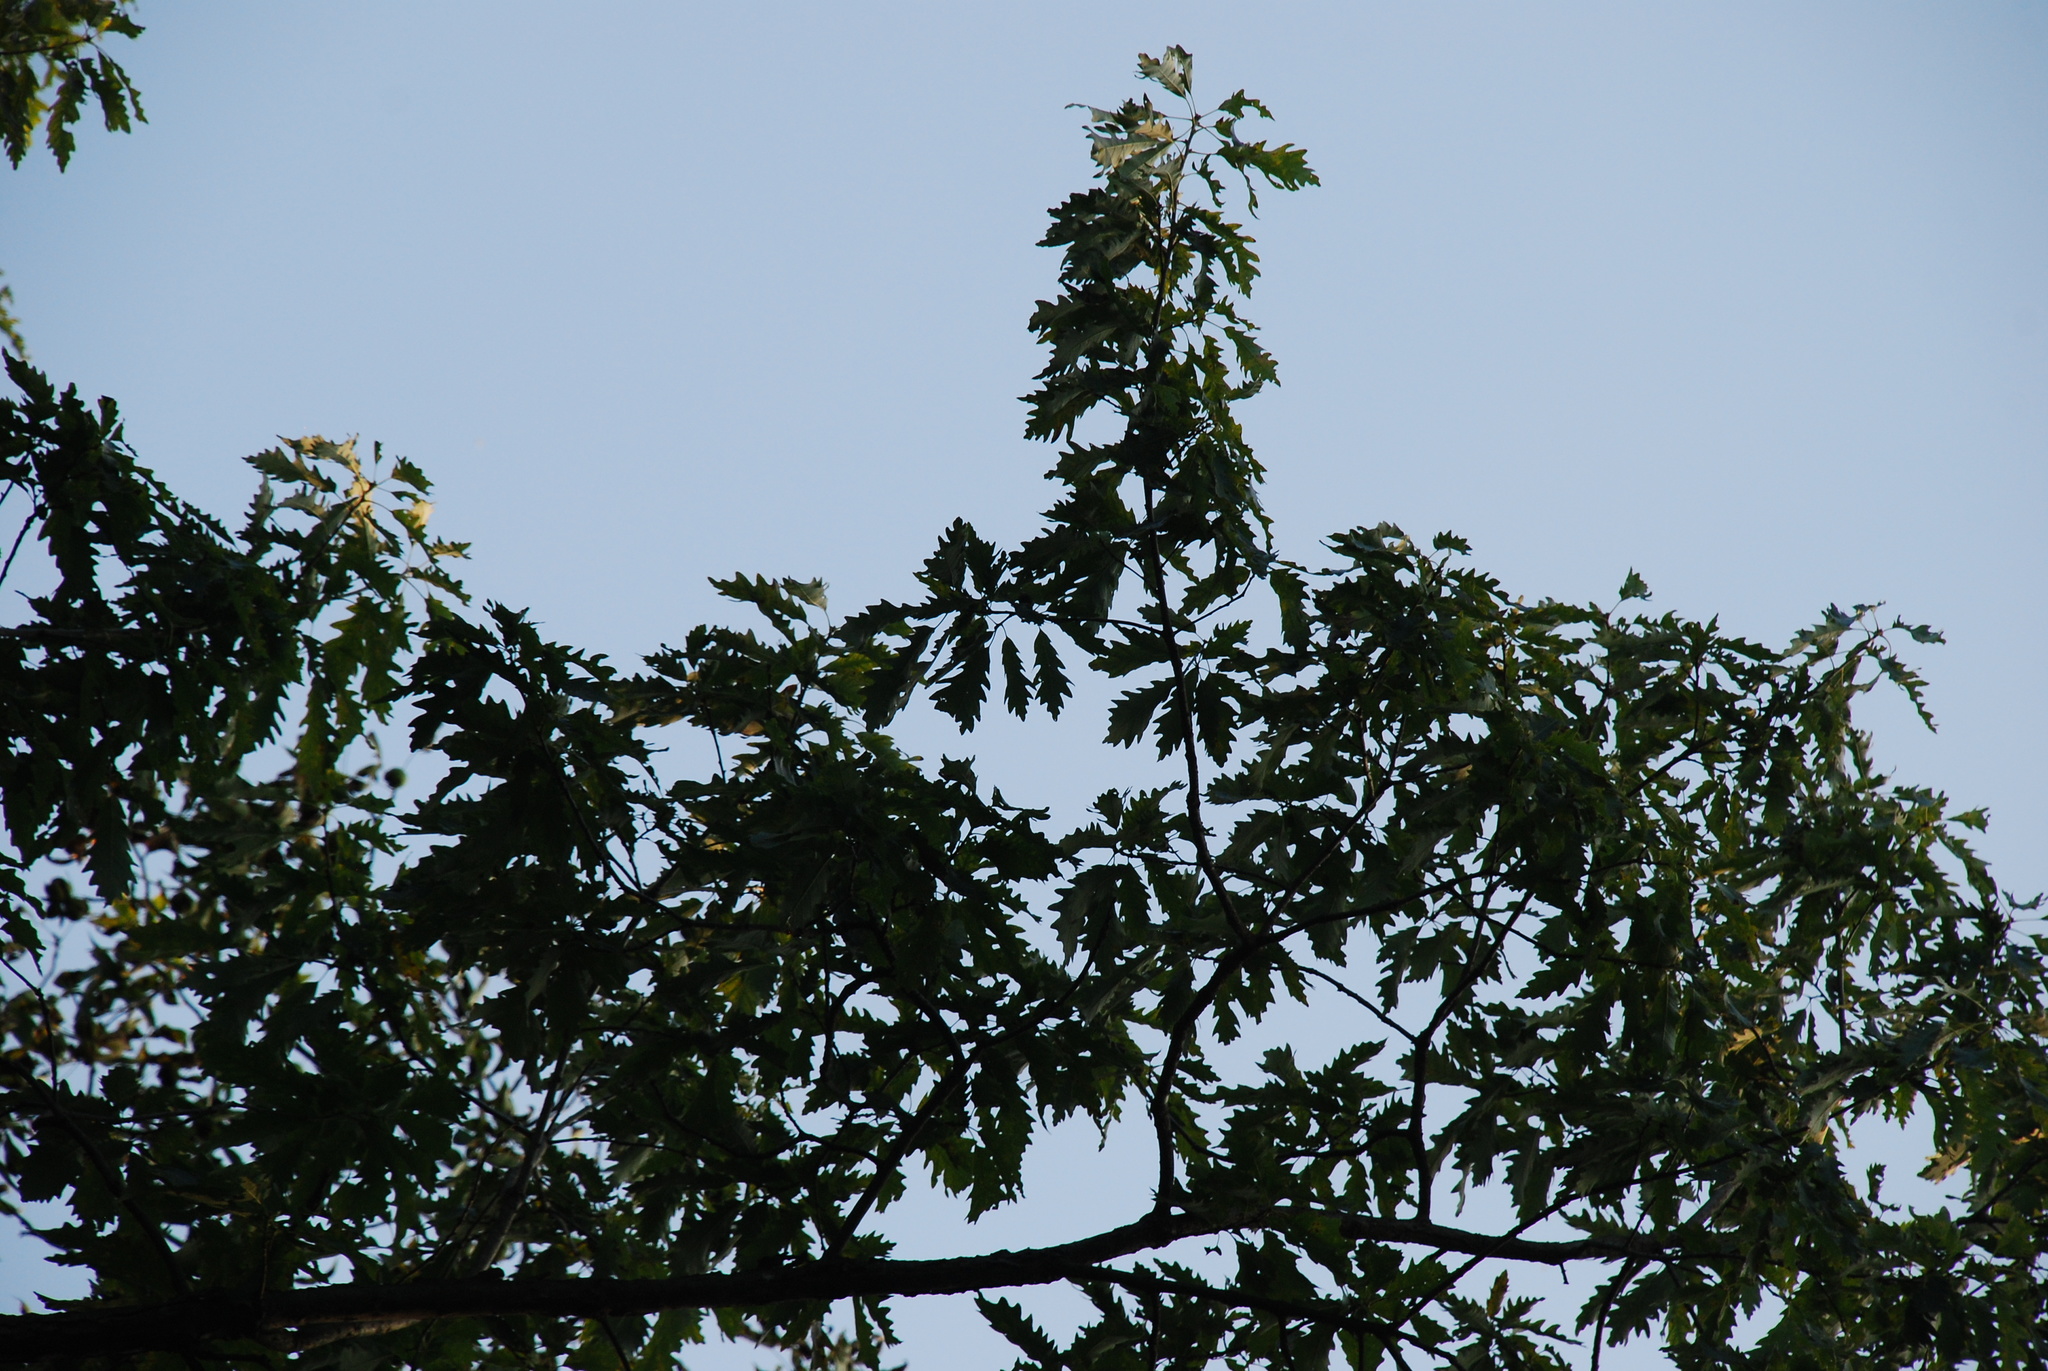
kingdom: Plantae
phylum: Tracheophyta
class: Magnoliopsida
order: Fagales
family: Fagaceae
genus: Quercus
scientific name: Quercus deamii
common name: Deam's oak
